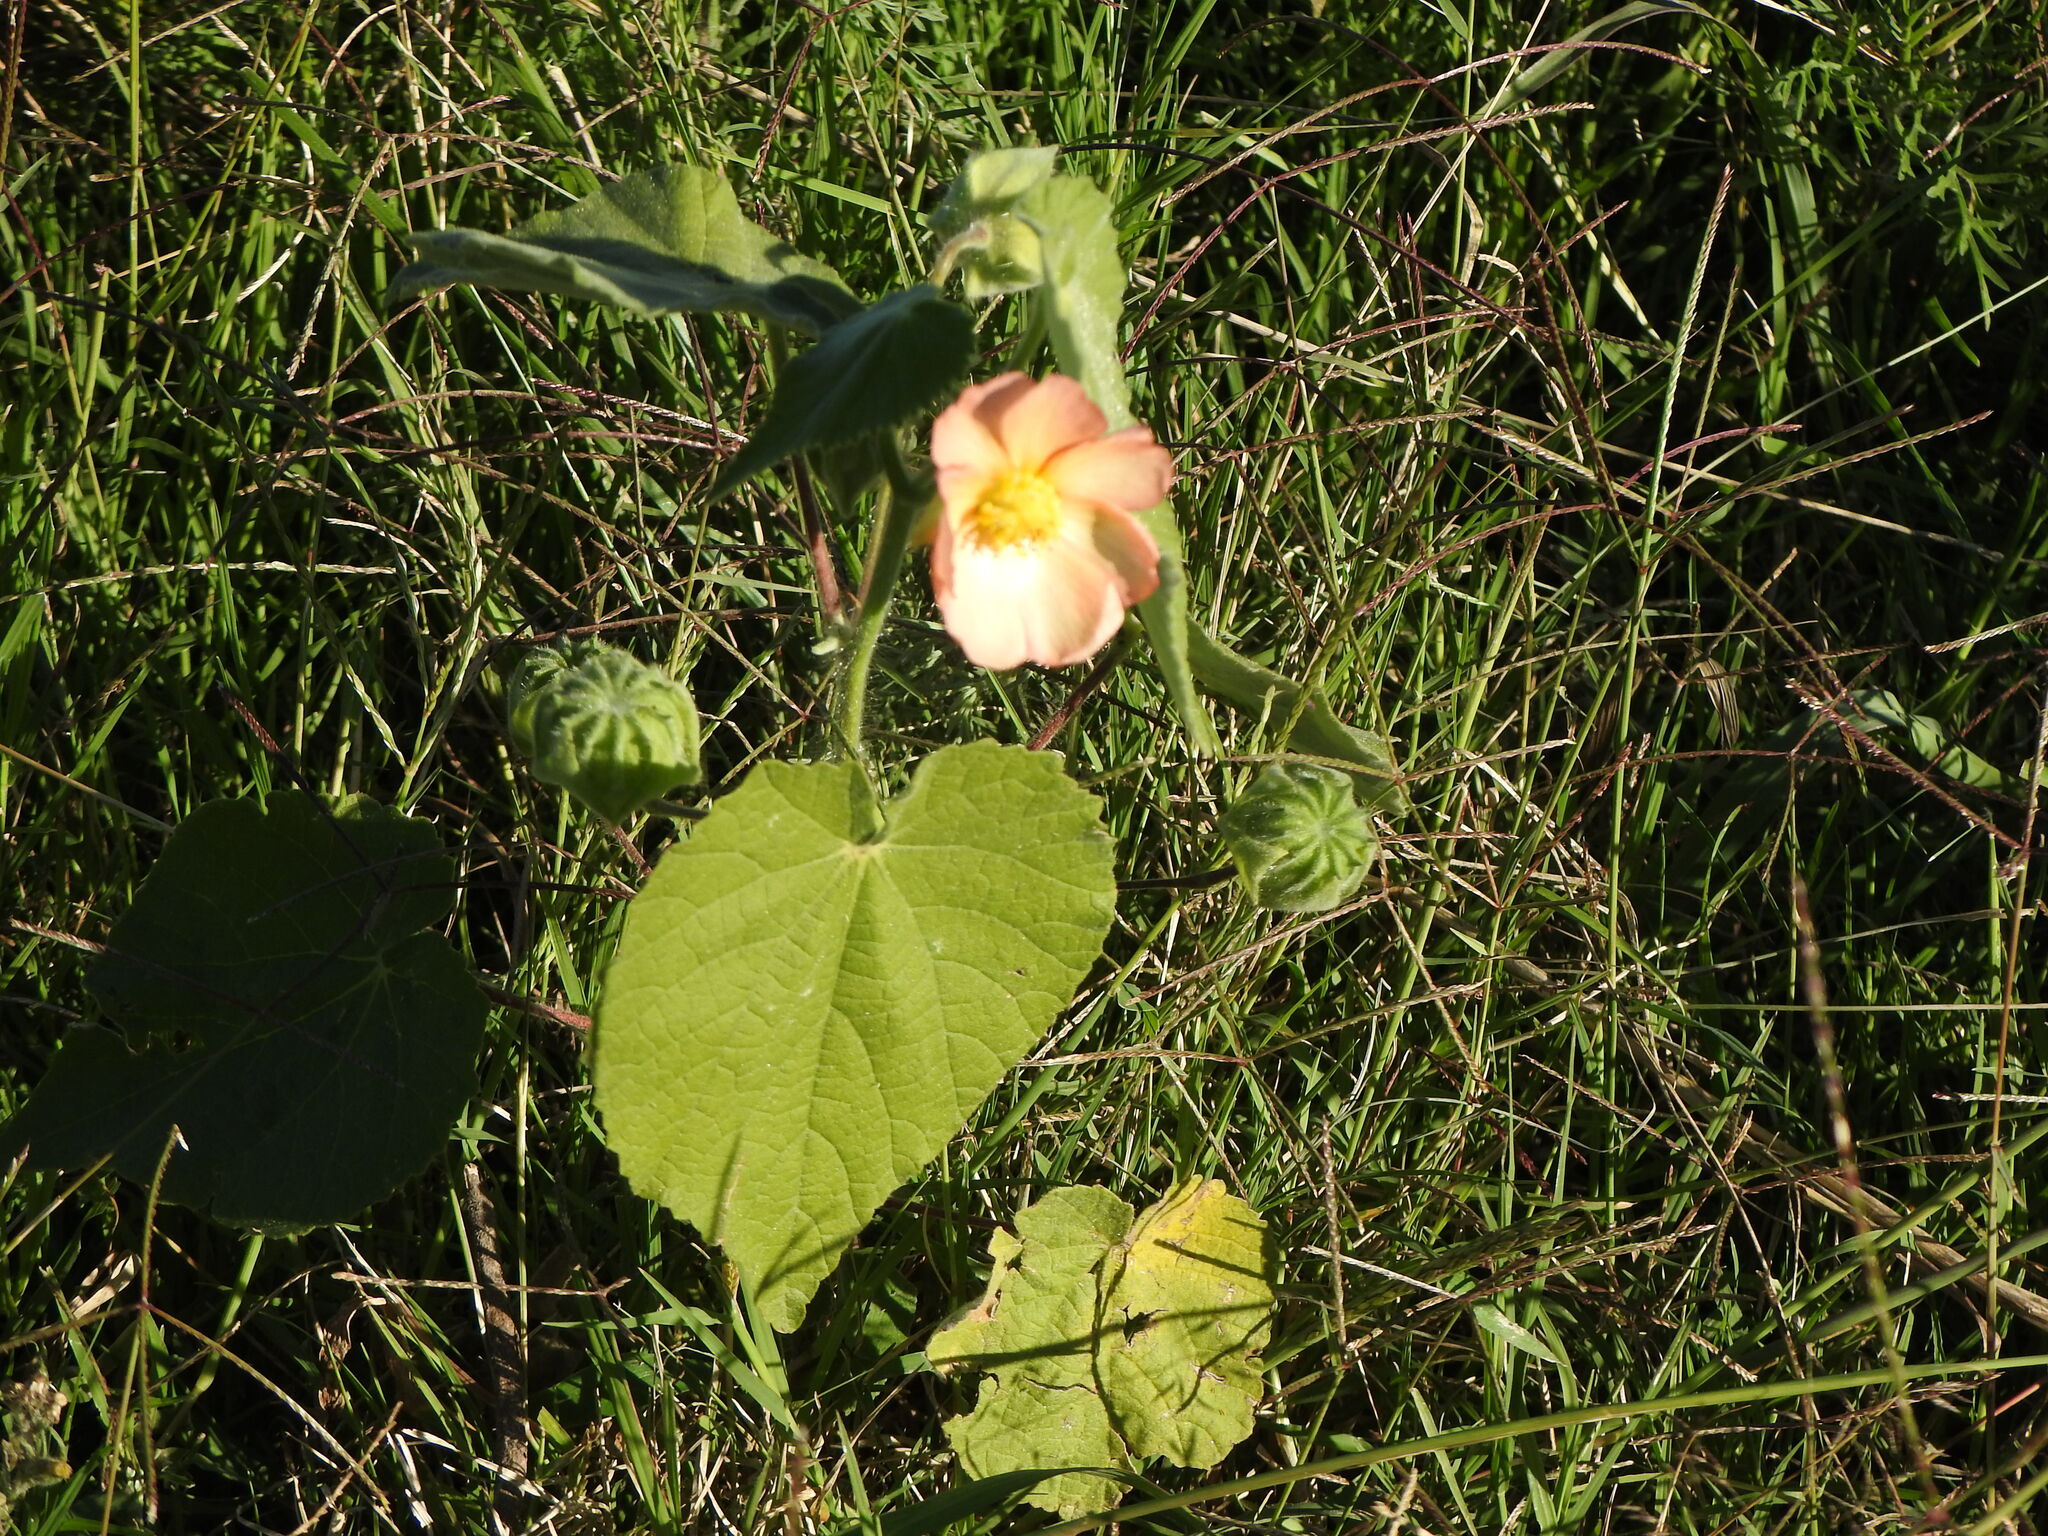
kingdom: Plantae
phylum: Tracheophyta
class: Magnoliopsida
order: Malvales
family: Malvaceae
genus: Callianthe
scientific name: Callianthe pauciflora
